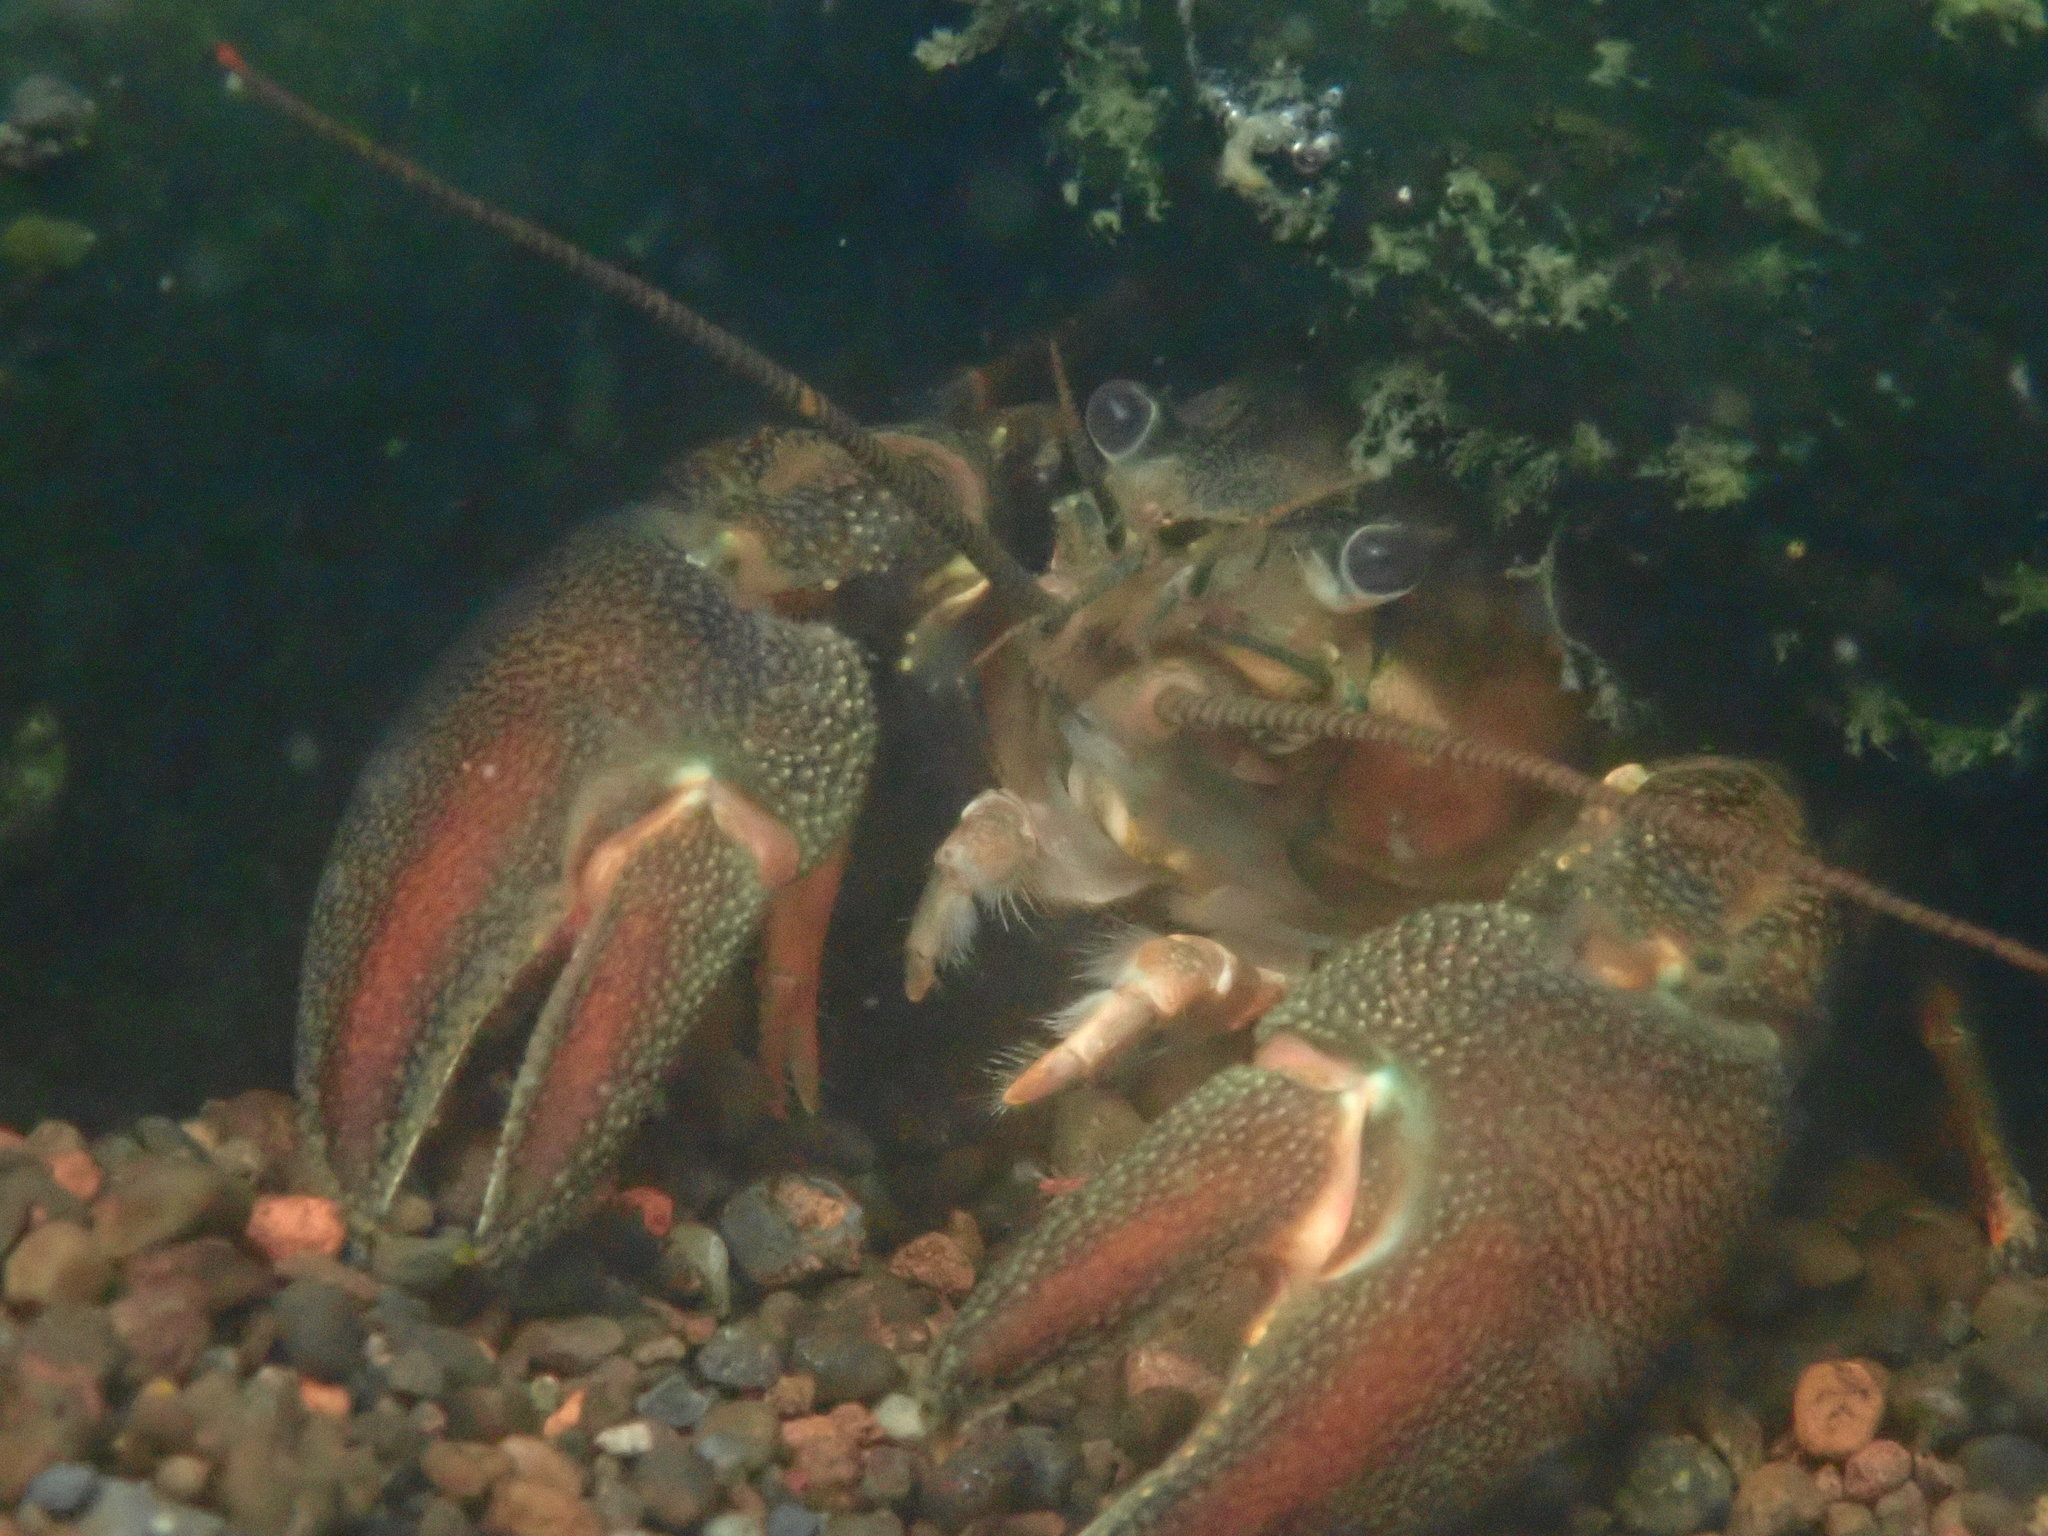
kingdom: Animalia
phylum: Arthropoda
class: Malacostraca
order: Decapoda
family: Astacidae
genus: Pacifastacus
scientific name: Pacifastacus leniusculus
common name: Signal crayfish
